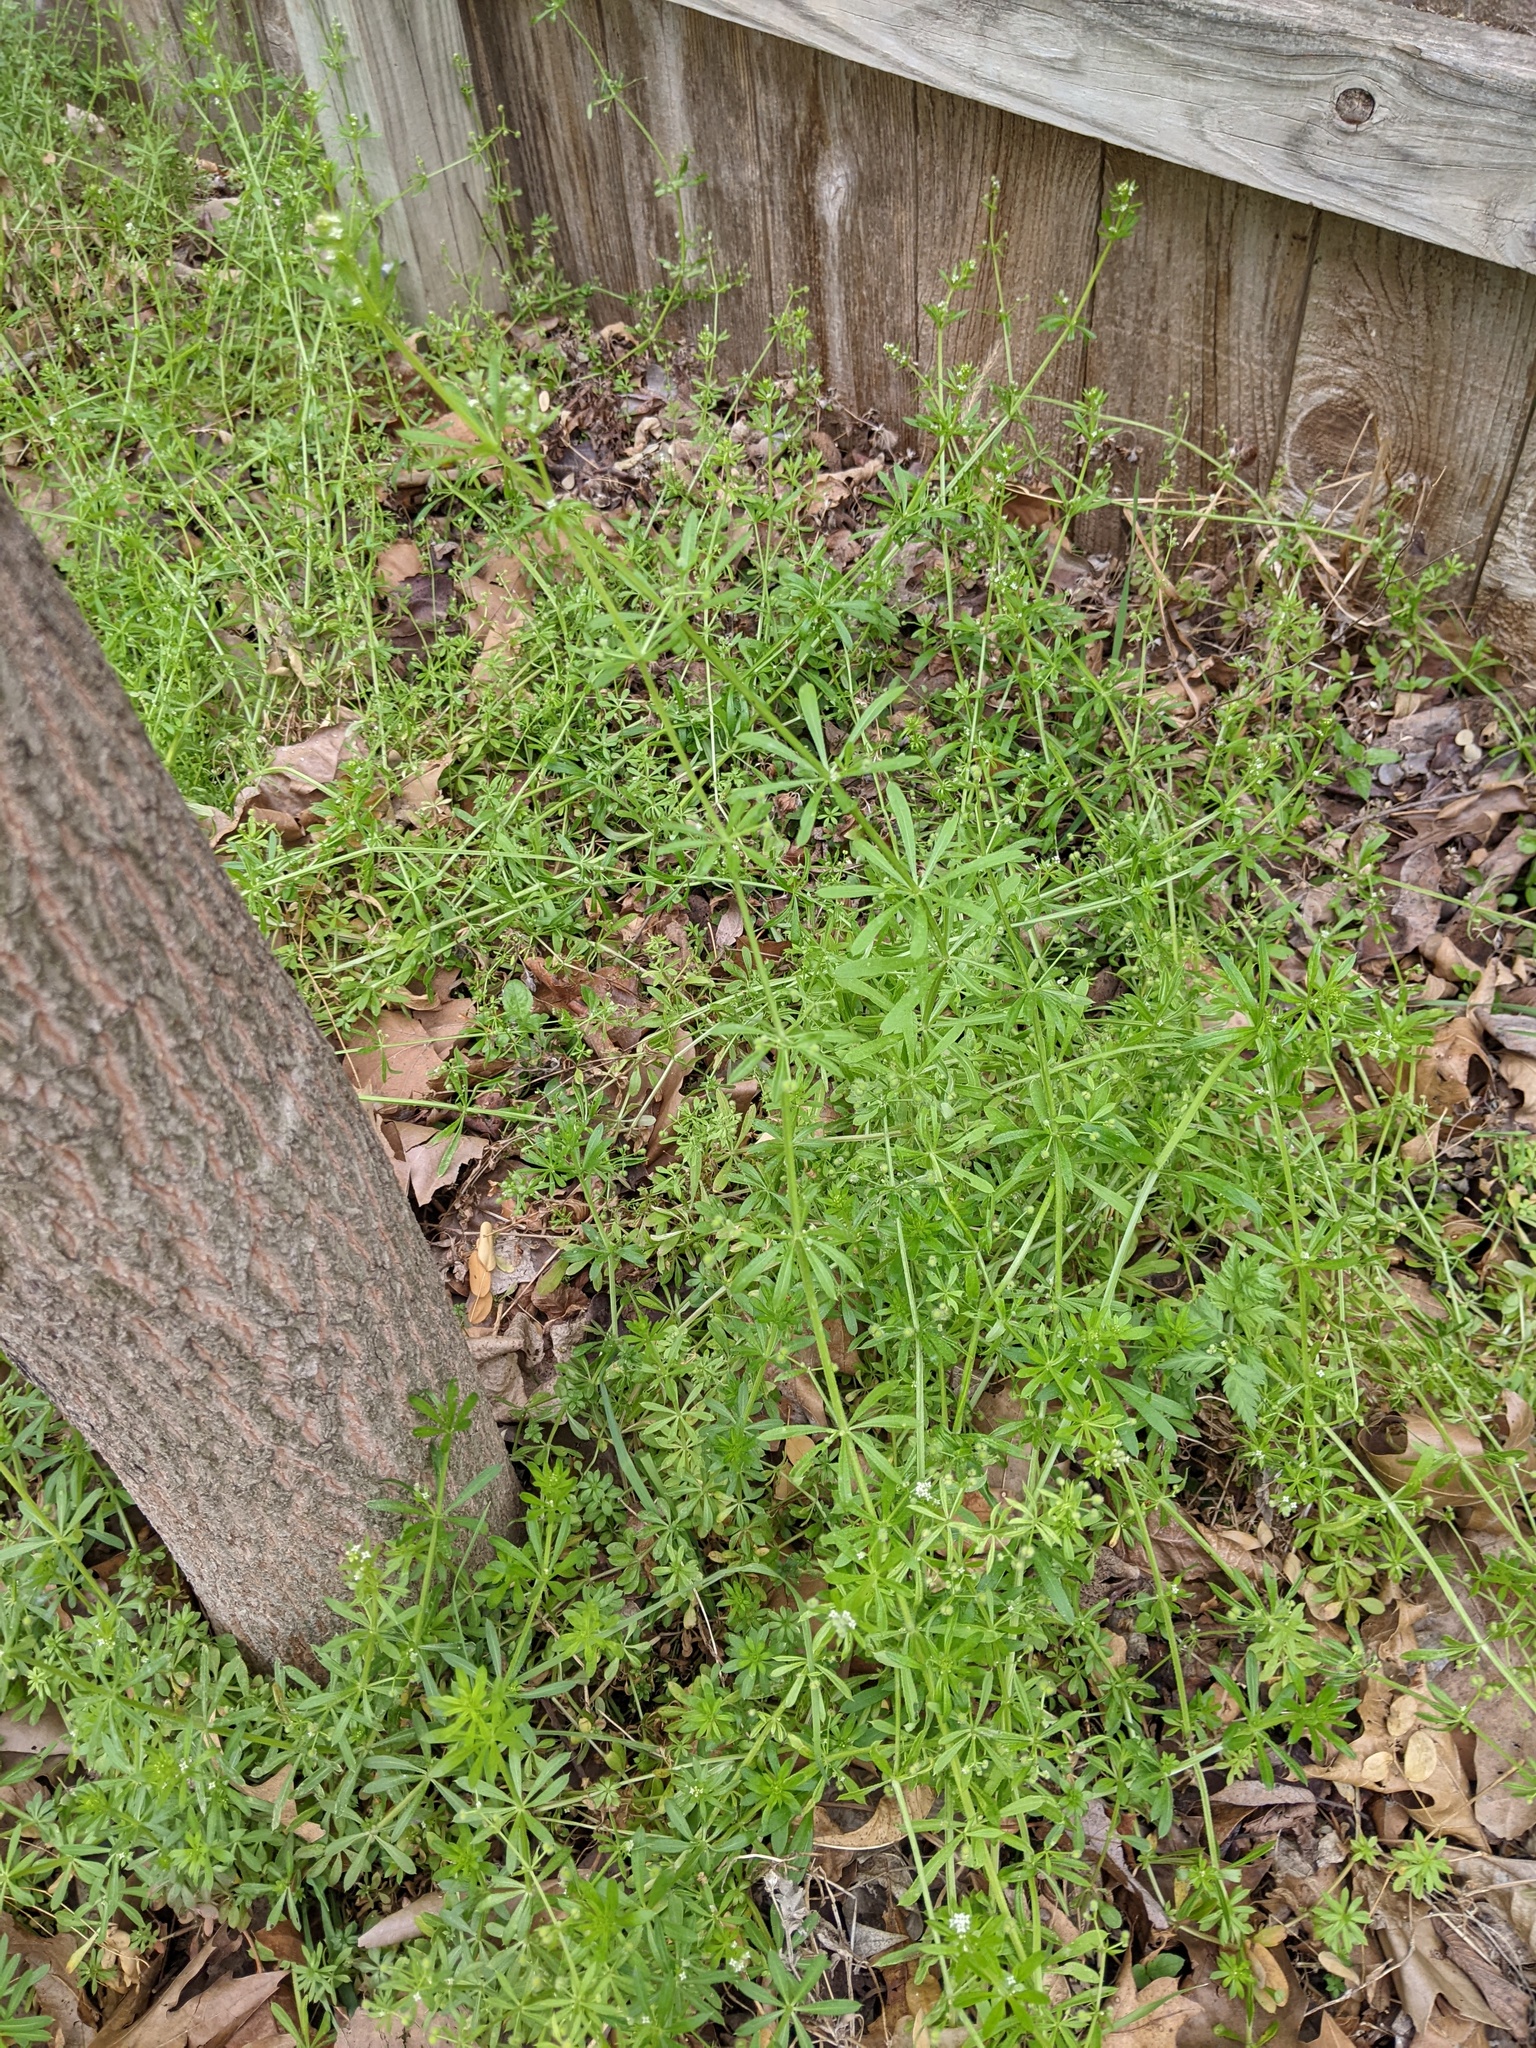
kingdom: Plantae
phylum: Tracheophyta
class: Magnoliopsida
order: Gentianales
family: Rubiaceae
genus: Galium
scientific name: Galium aparine
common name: Cleavers
